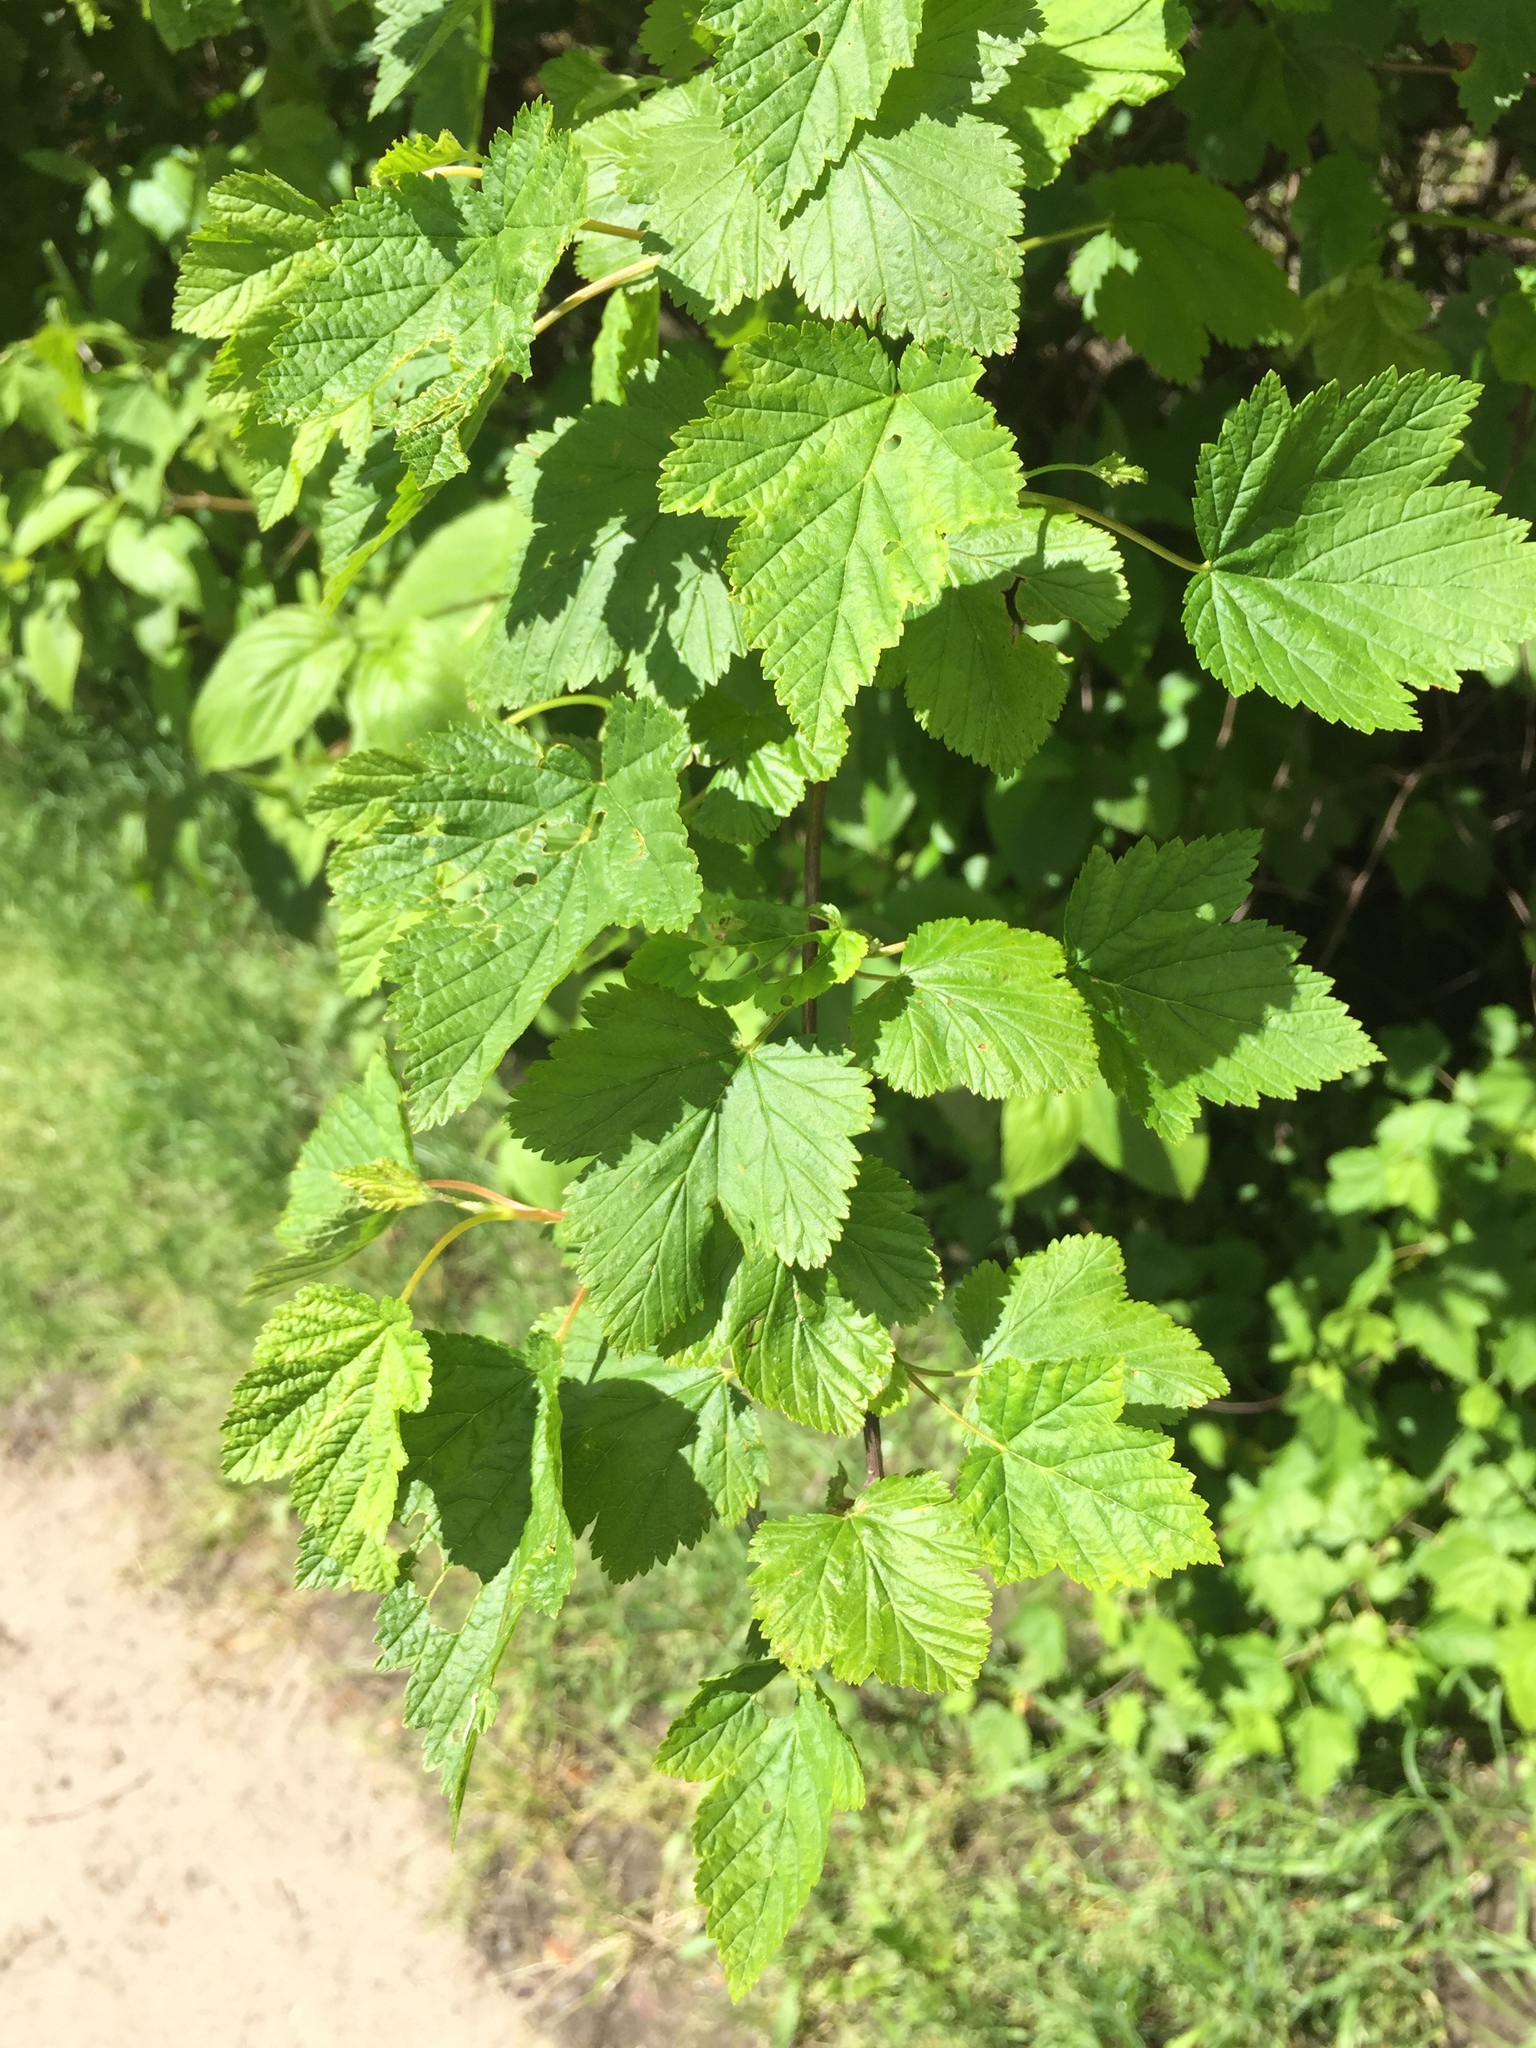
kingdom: Plantae
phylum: Tracheophyta
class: Magnoliopsida
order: Rosales
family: Rosaceae
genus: Physocarpus
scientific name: Physocarpus capitatus
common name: Pacific ninebark
